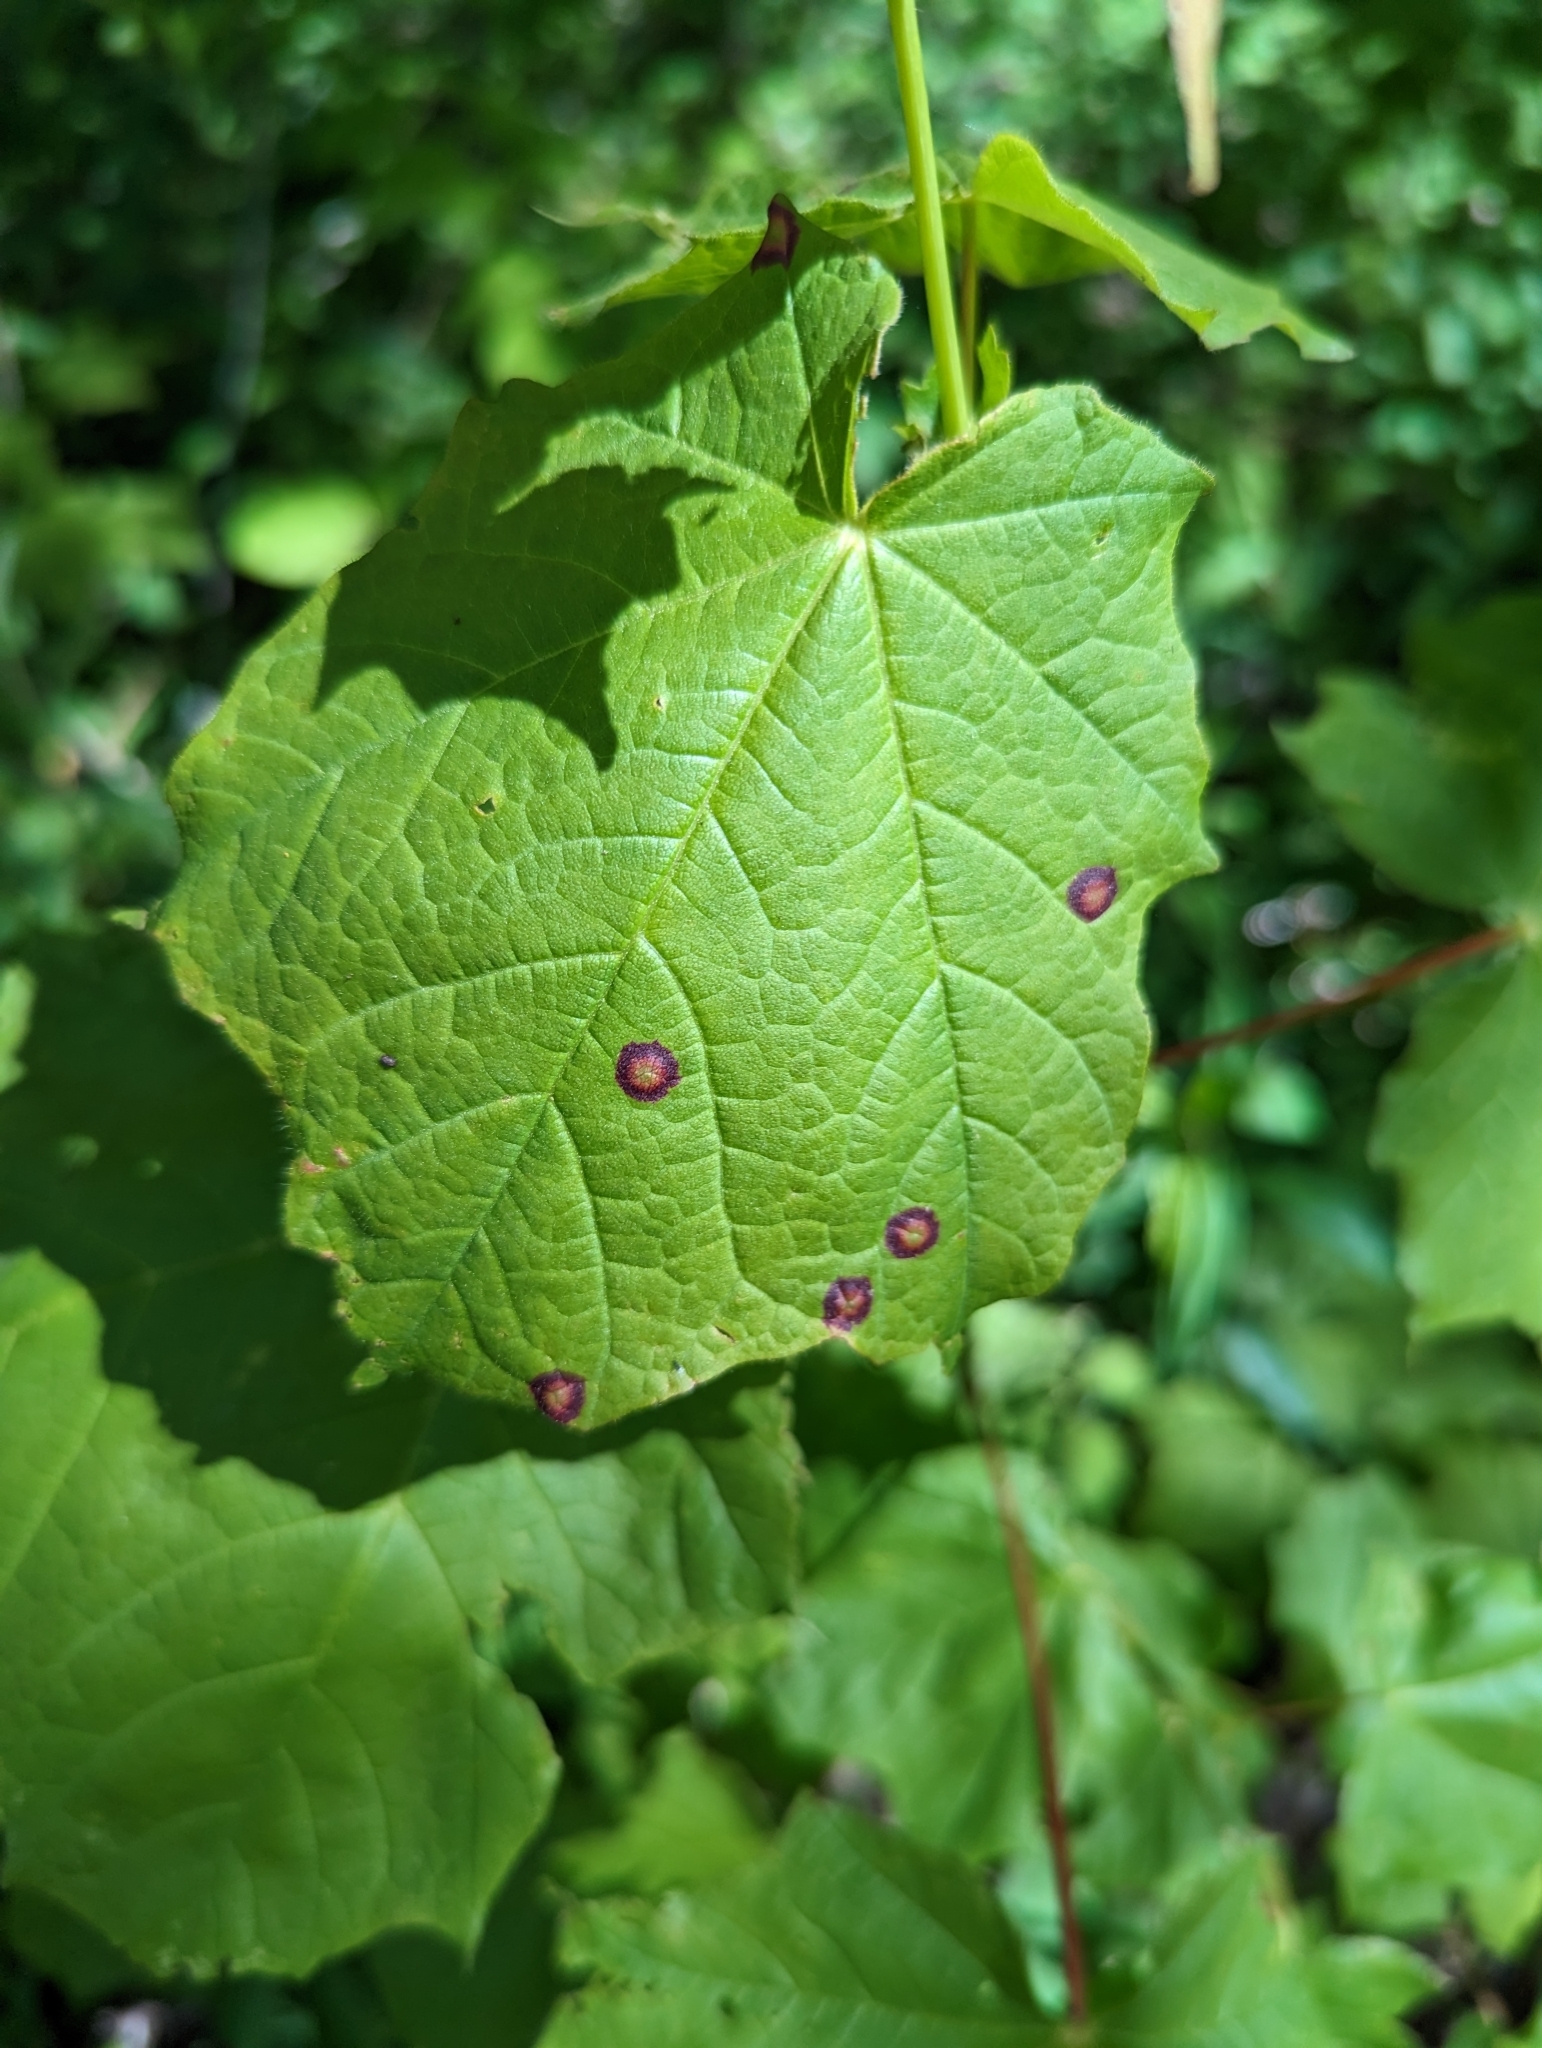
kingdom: Animalia
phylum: Arthropoda
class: Insecta
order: Diptera
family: Cecidomyiidae
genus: Acericecis
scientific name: Acericecis ocellaris
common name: Ocellate gall midge
